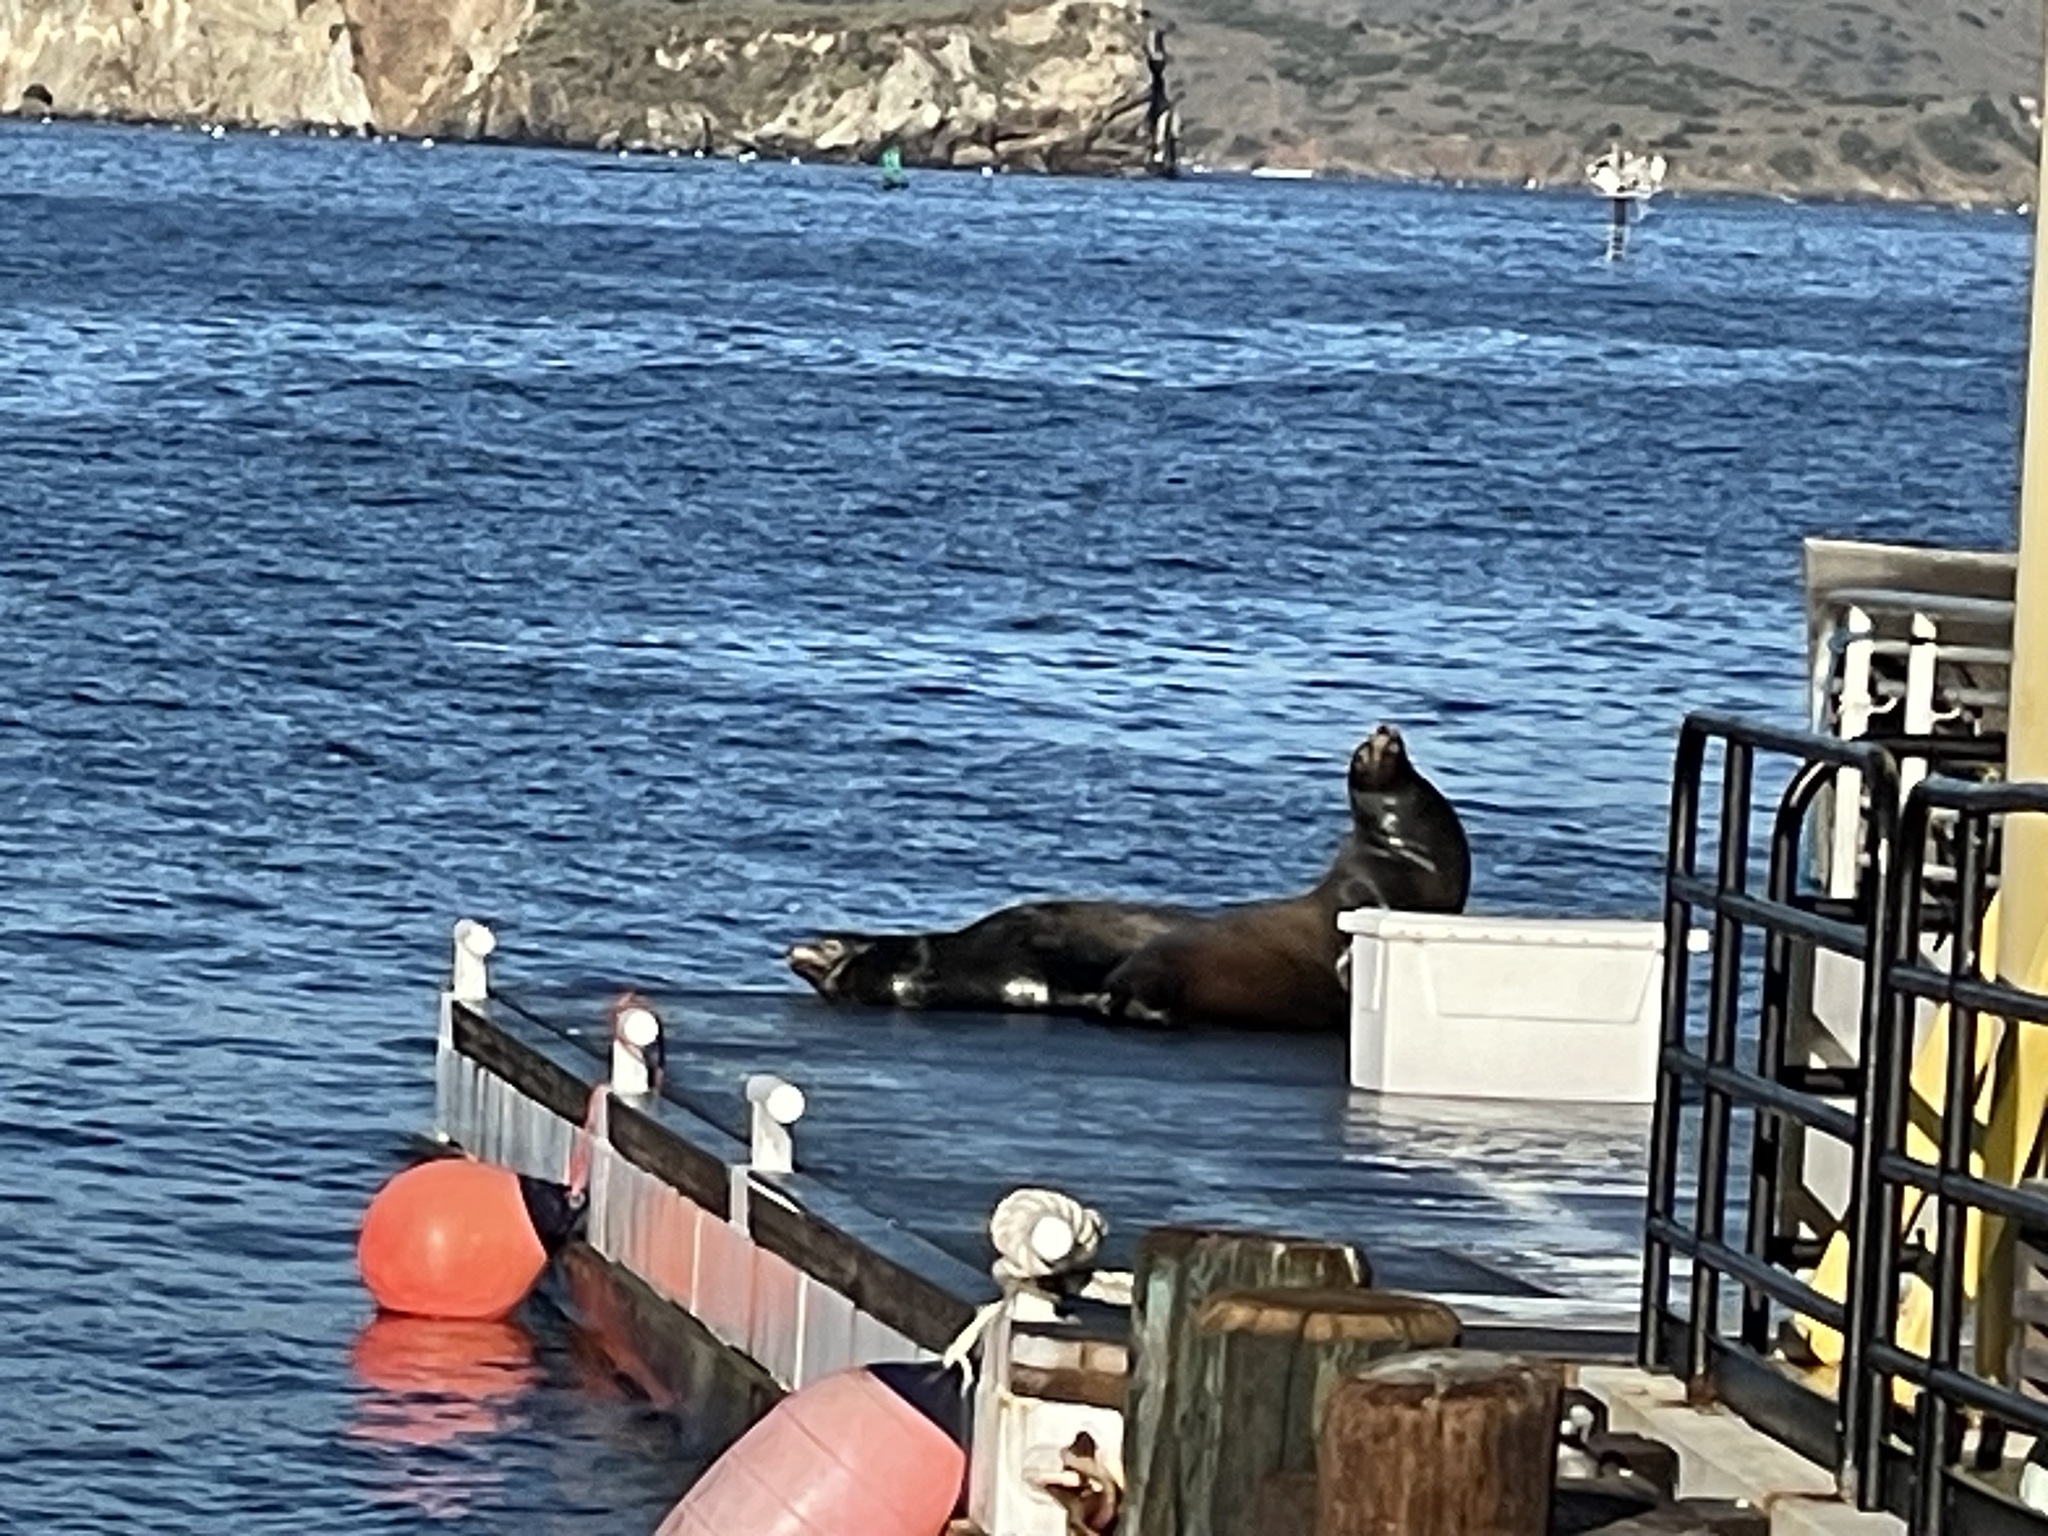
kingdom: Animalia
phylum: Chordata
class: Mammalia
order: Carnivora
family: Otariidae
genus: Zalophus
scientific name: Zalophus californianus
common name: California sea lion
